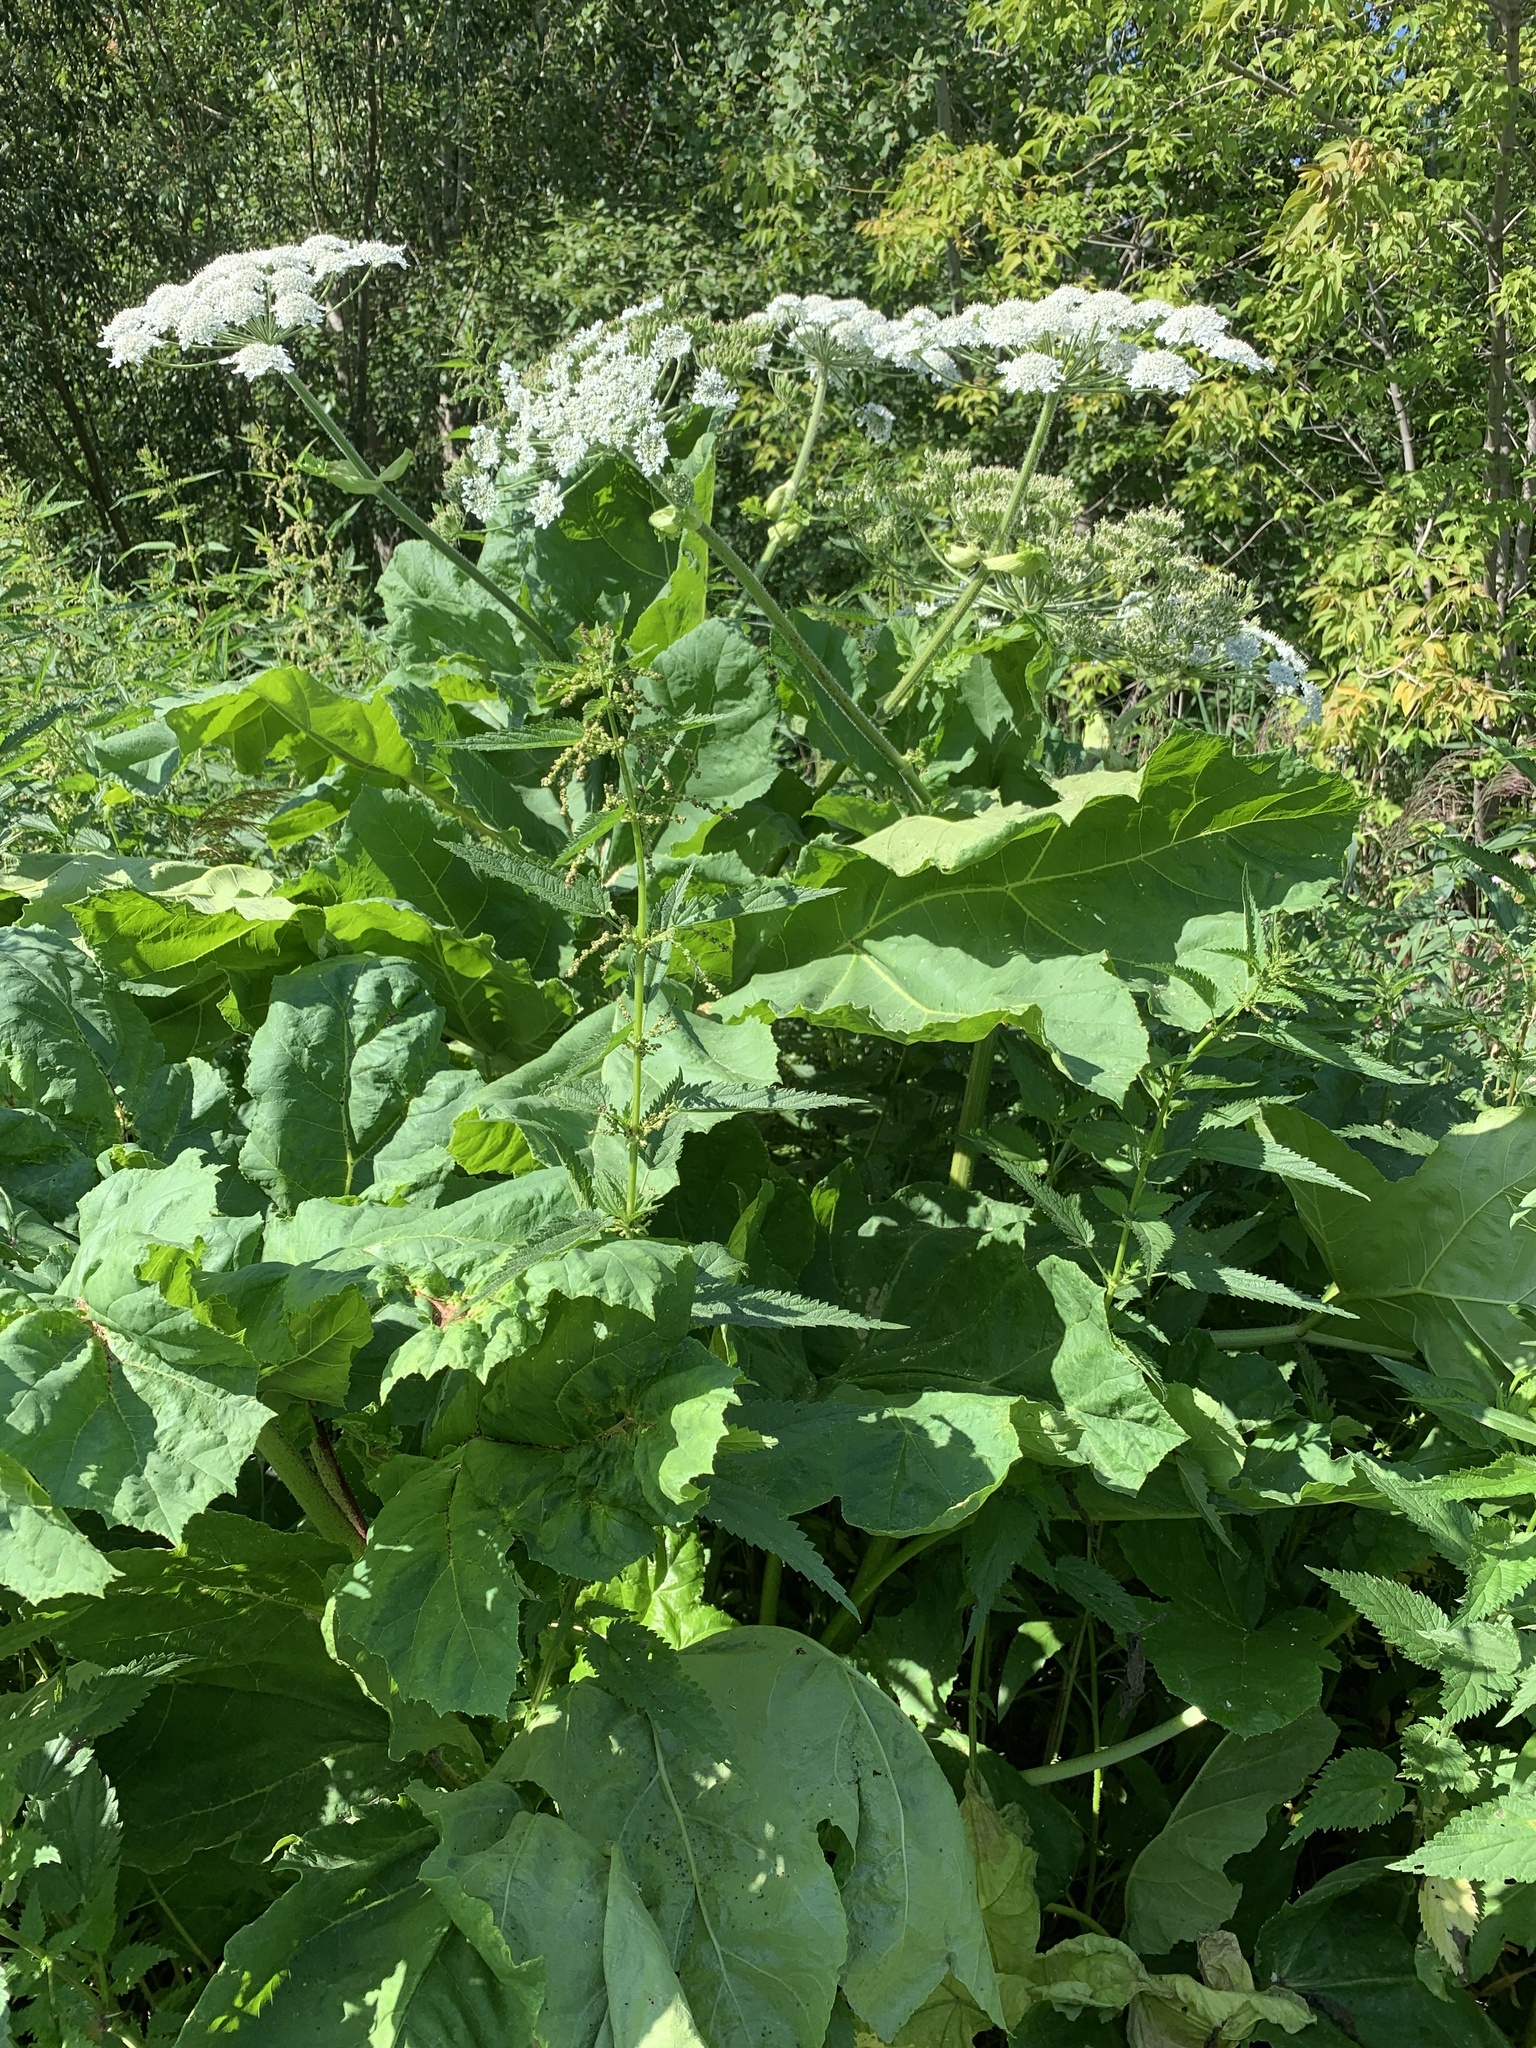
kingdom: Plantae
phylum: Tracheophyta
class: Magnoliopsida
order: Apiales
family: Apiaceae
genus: Heracleum
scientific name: Heracleum sosnowskyi
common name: Sosnowsky's hogweed
